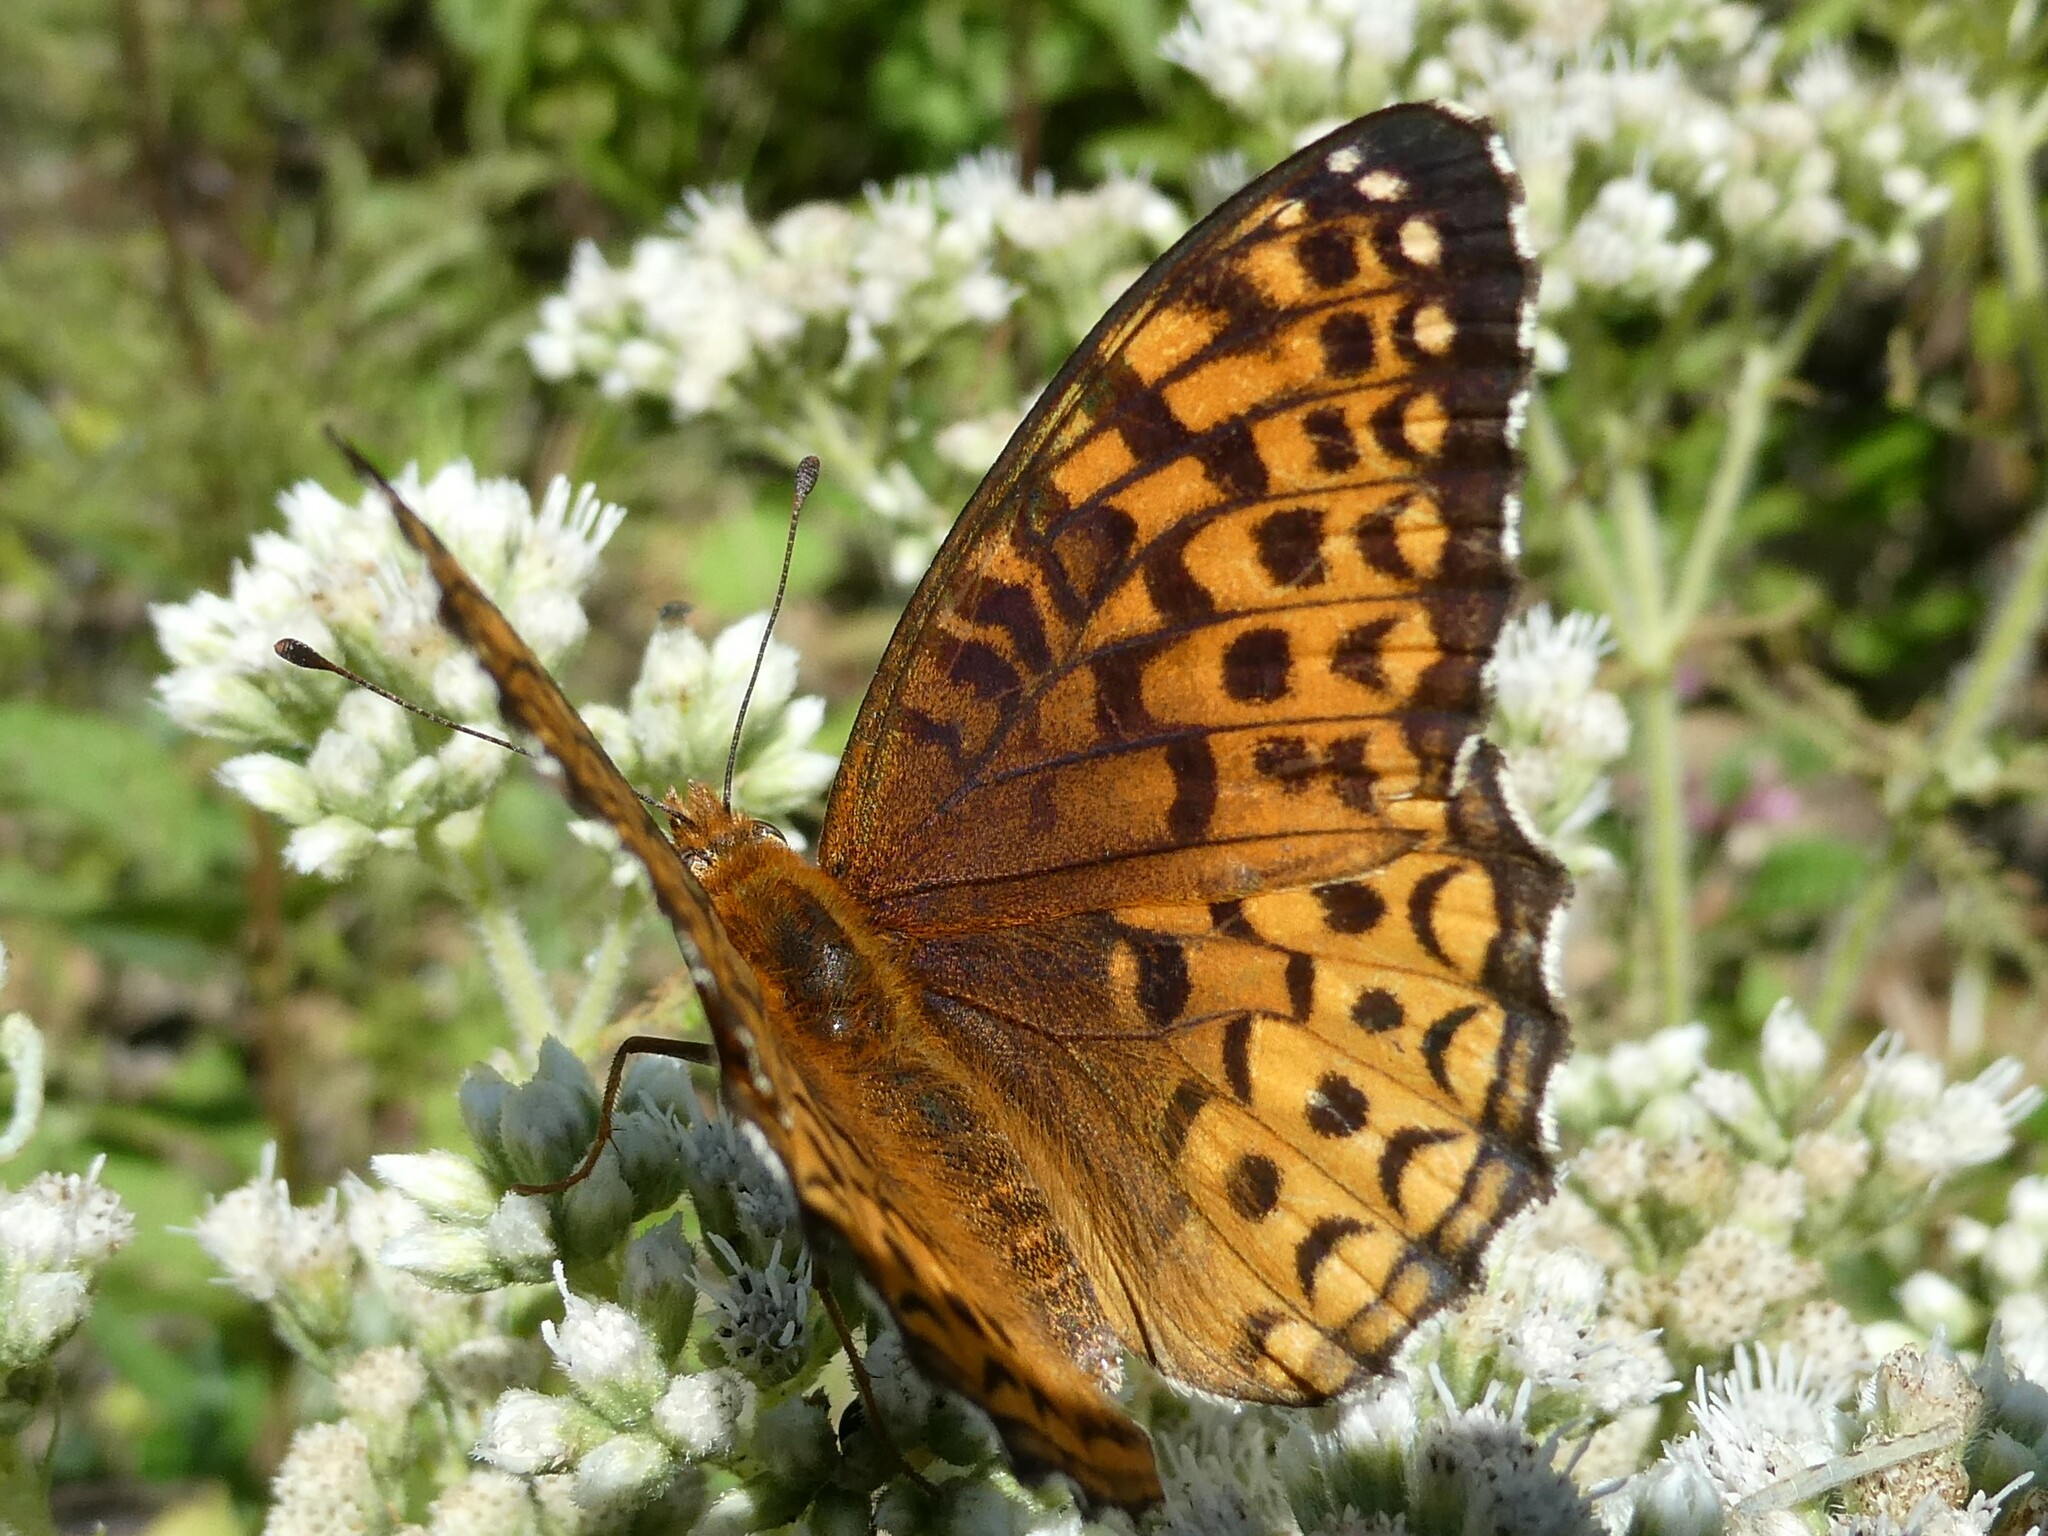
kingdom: Animalia
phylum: Arthropoda
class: Insecta
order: Lepidoptera
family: Nymphalidae
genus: Speyeria
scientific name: Speyeria atlantis
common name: Atlantis fritillary
